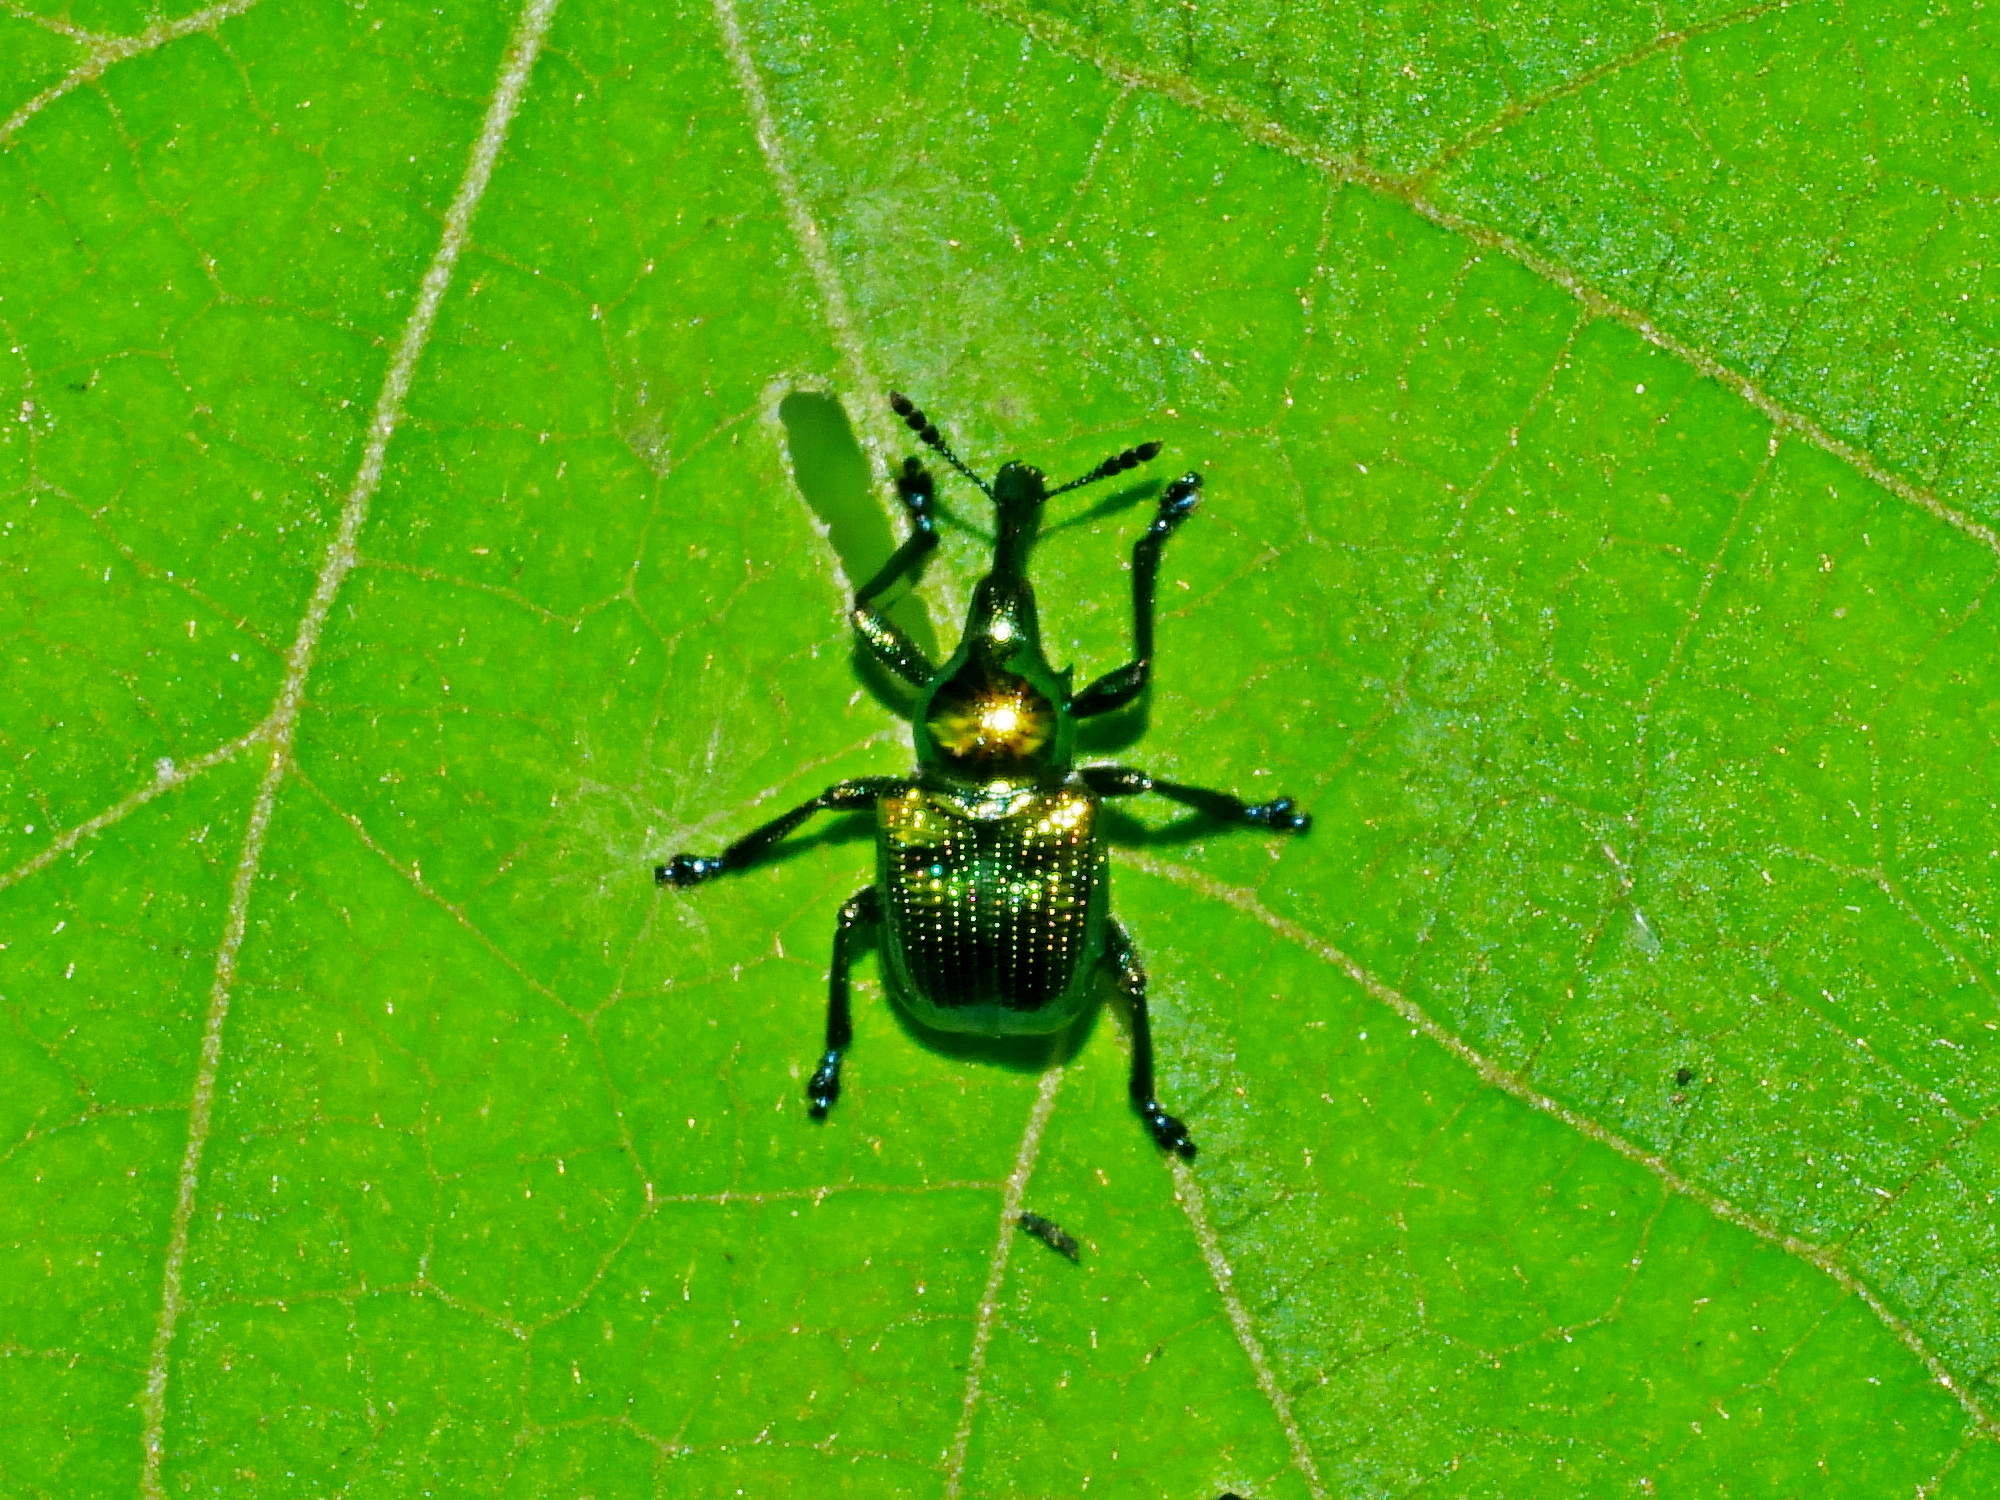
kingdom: Animalia
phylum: Arthropoda
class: Insecta
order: Coleoptera
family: Attelabidae
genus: Byctiscus
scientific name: Byctiscus impressus
